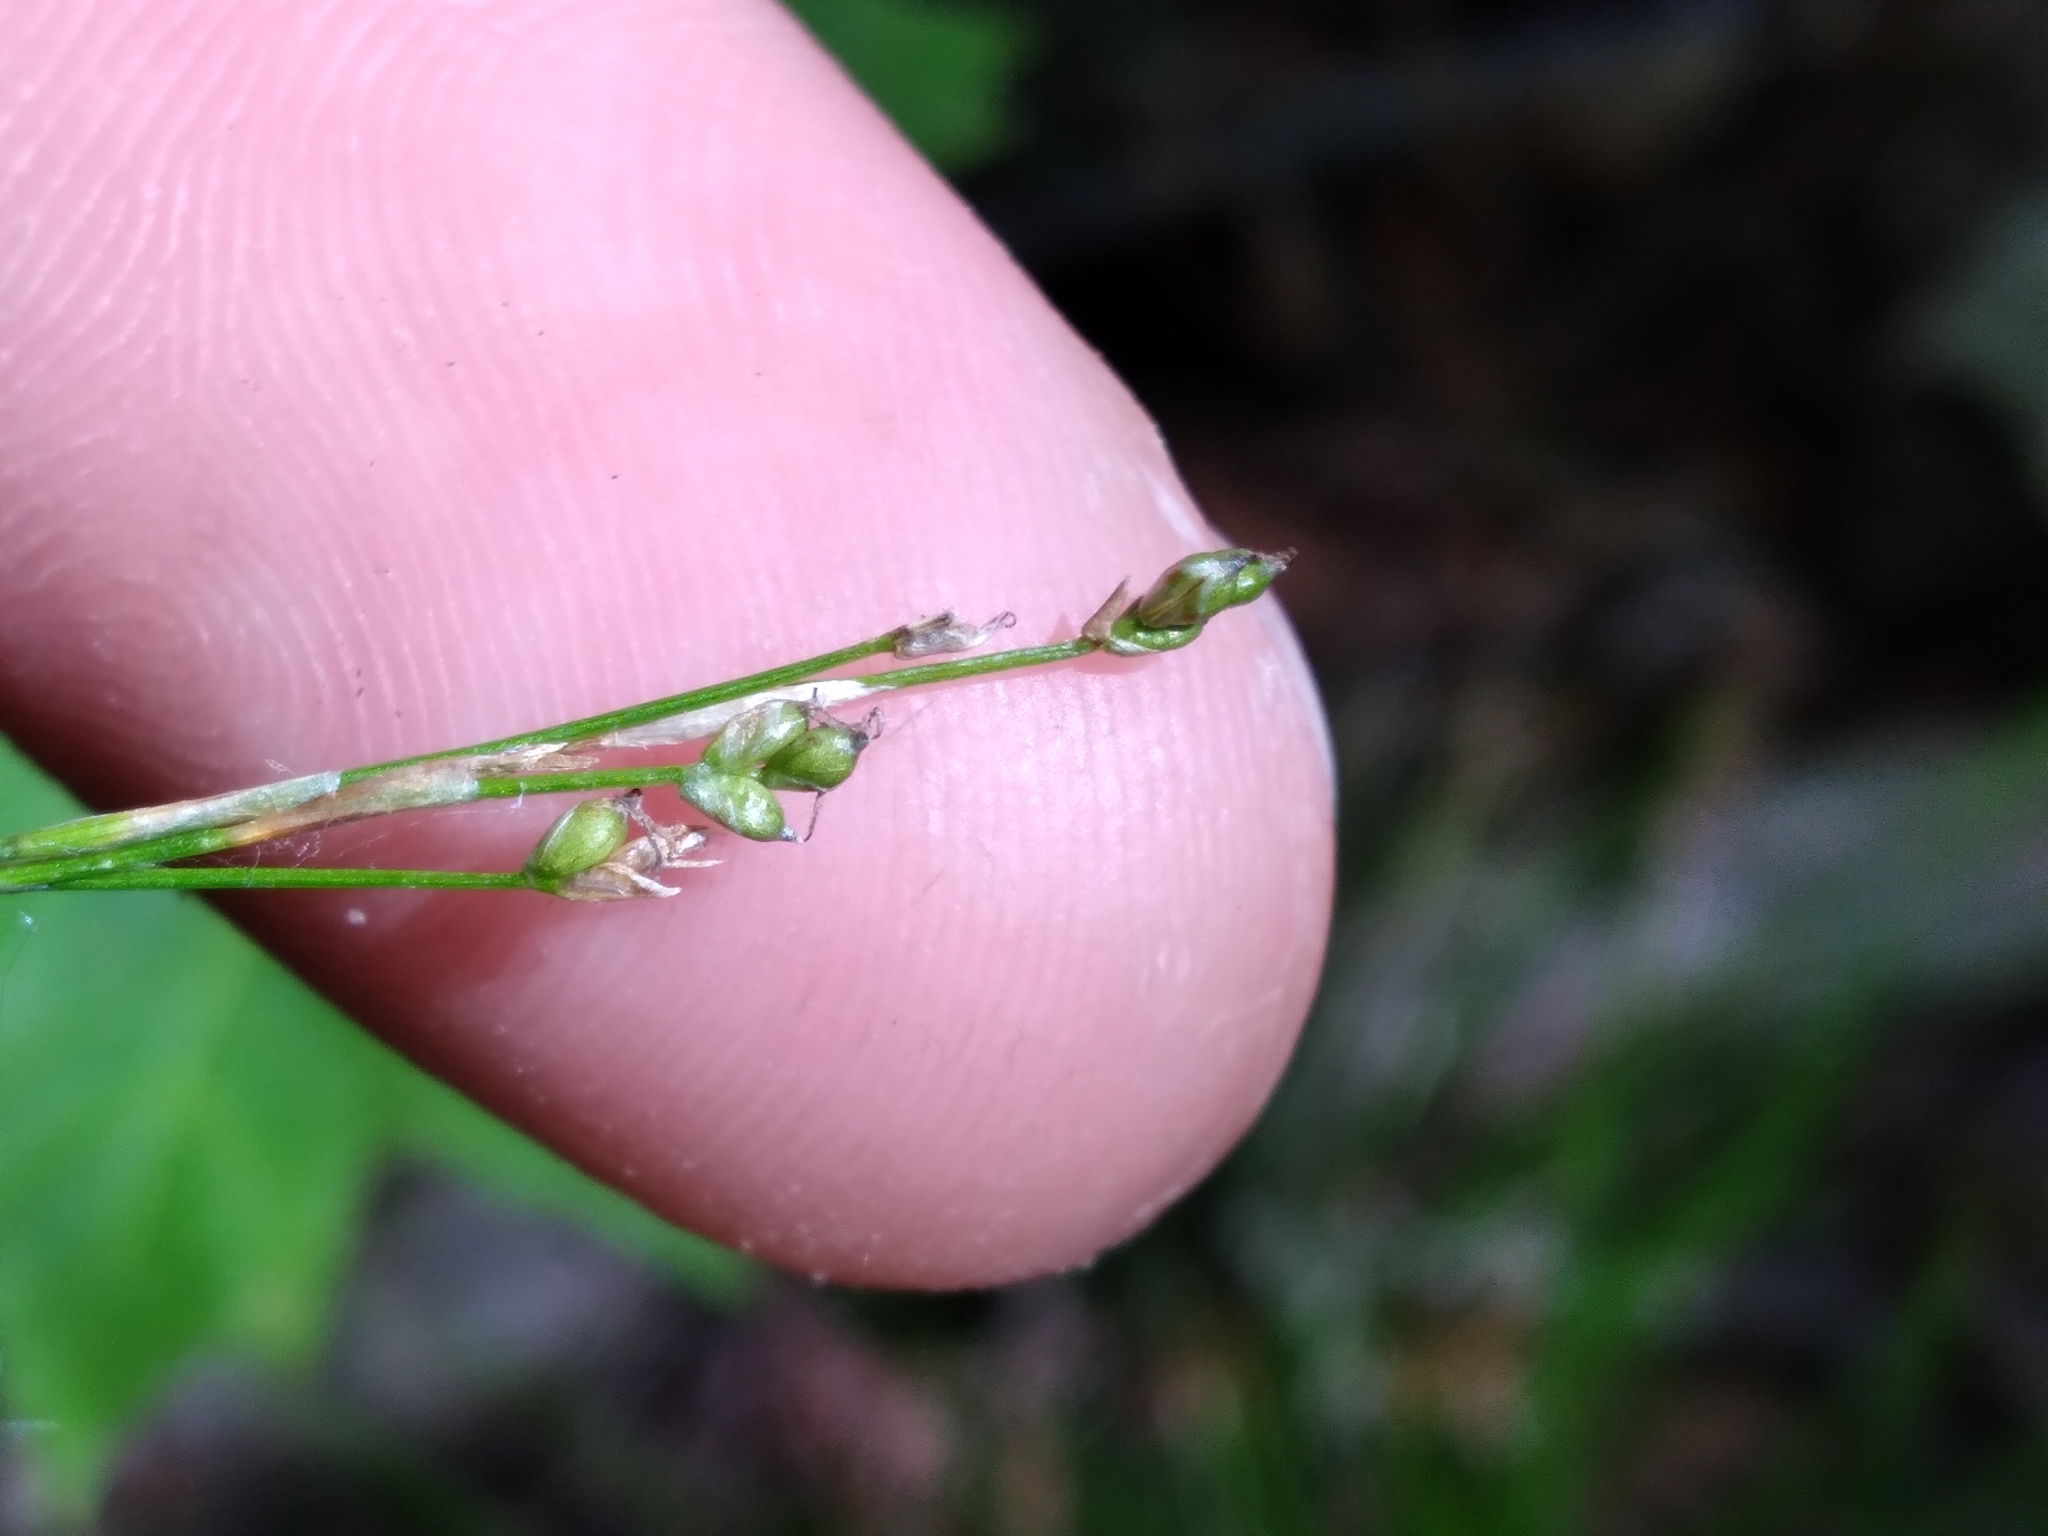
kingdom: Plantae
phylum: Tracheophyta
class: Liliopsida
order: Poales
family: Cyperaceae
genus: Carex
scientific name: Carex eburnea
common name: Bristle-leaved sedge
